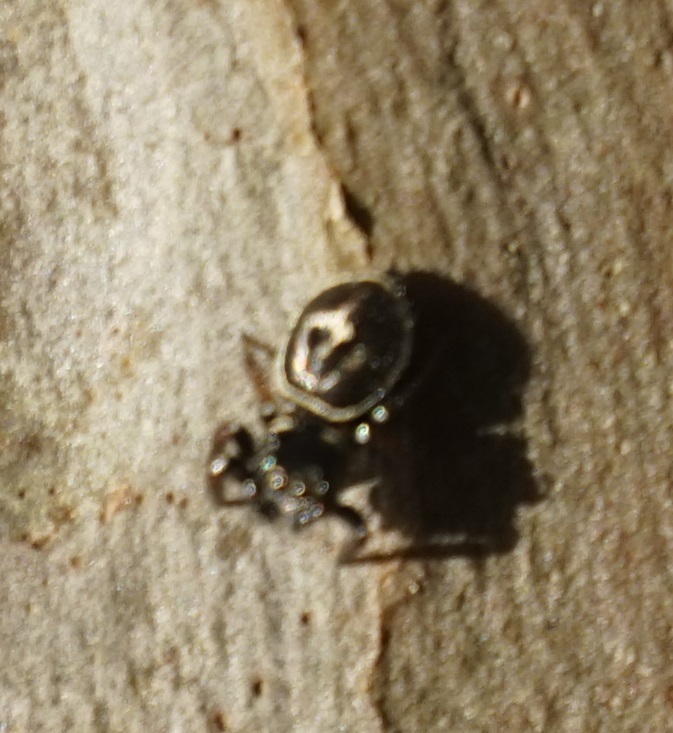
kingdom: Animalia
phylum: Arthropoda
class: Arachnida
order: Araneae
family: Salticidae
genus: Zenodorus
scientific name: Zenodorus orbiculatus
